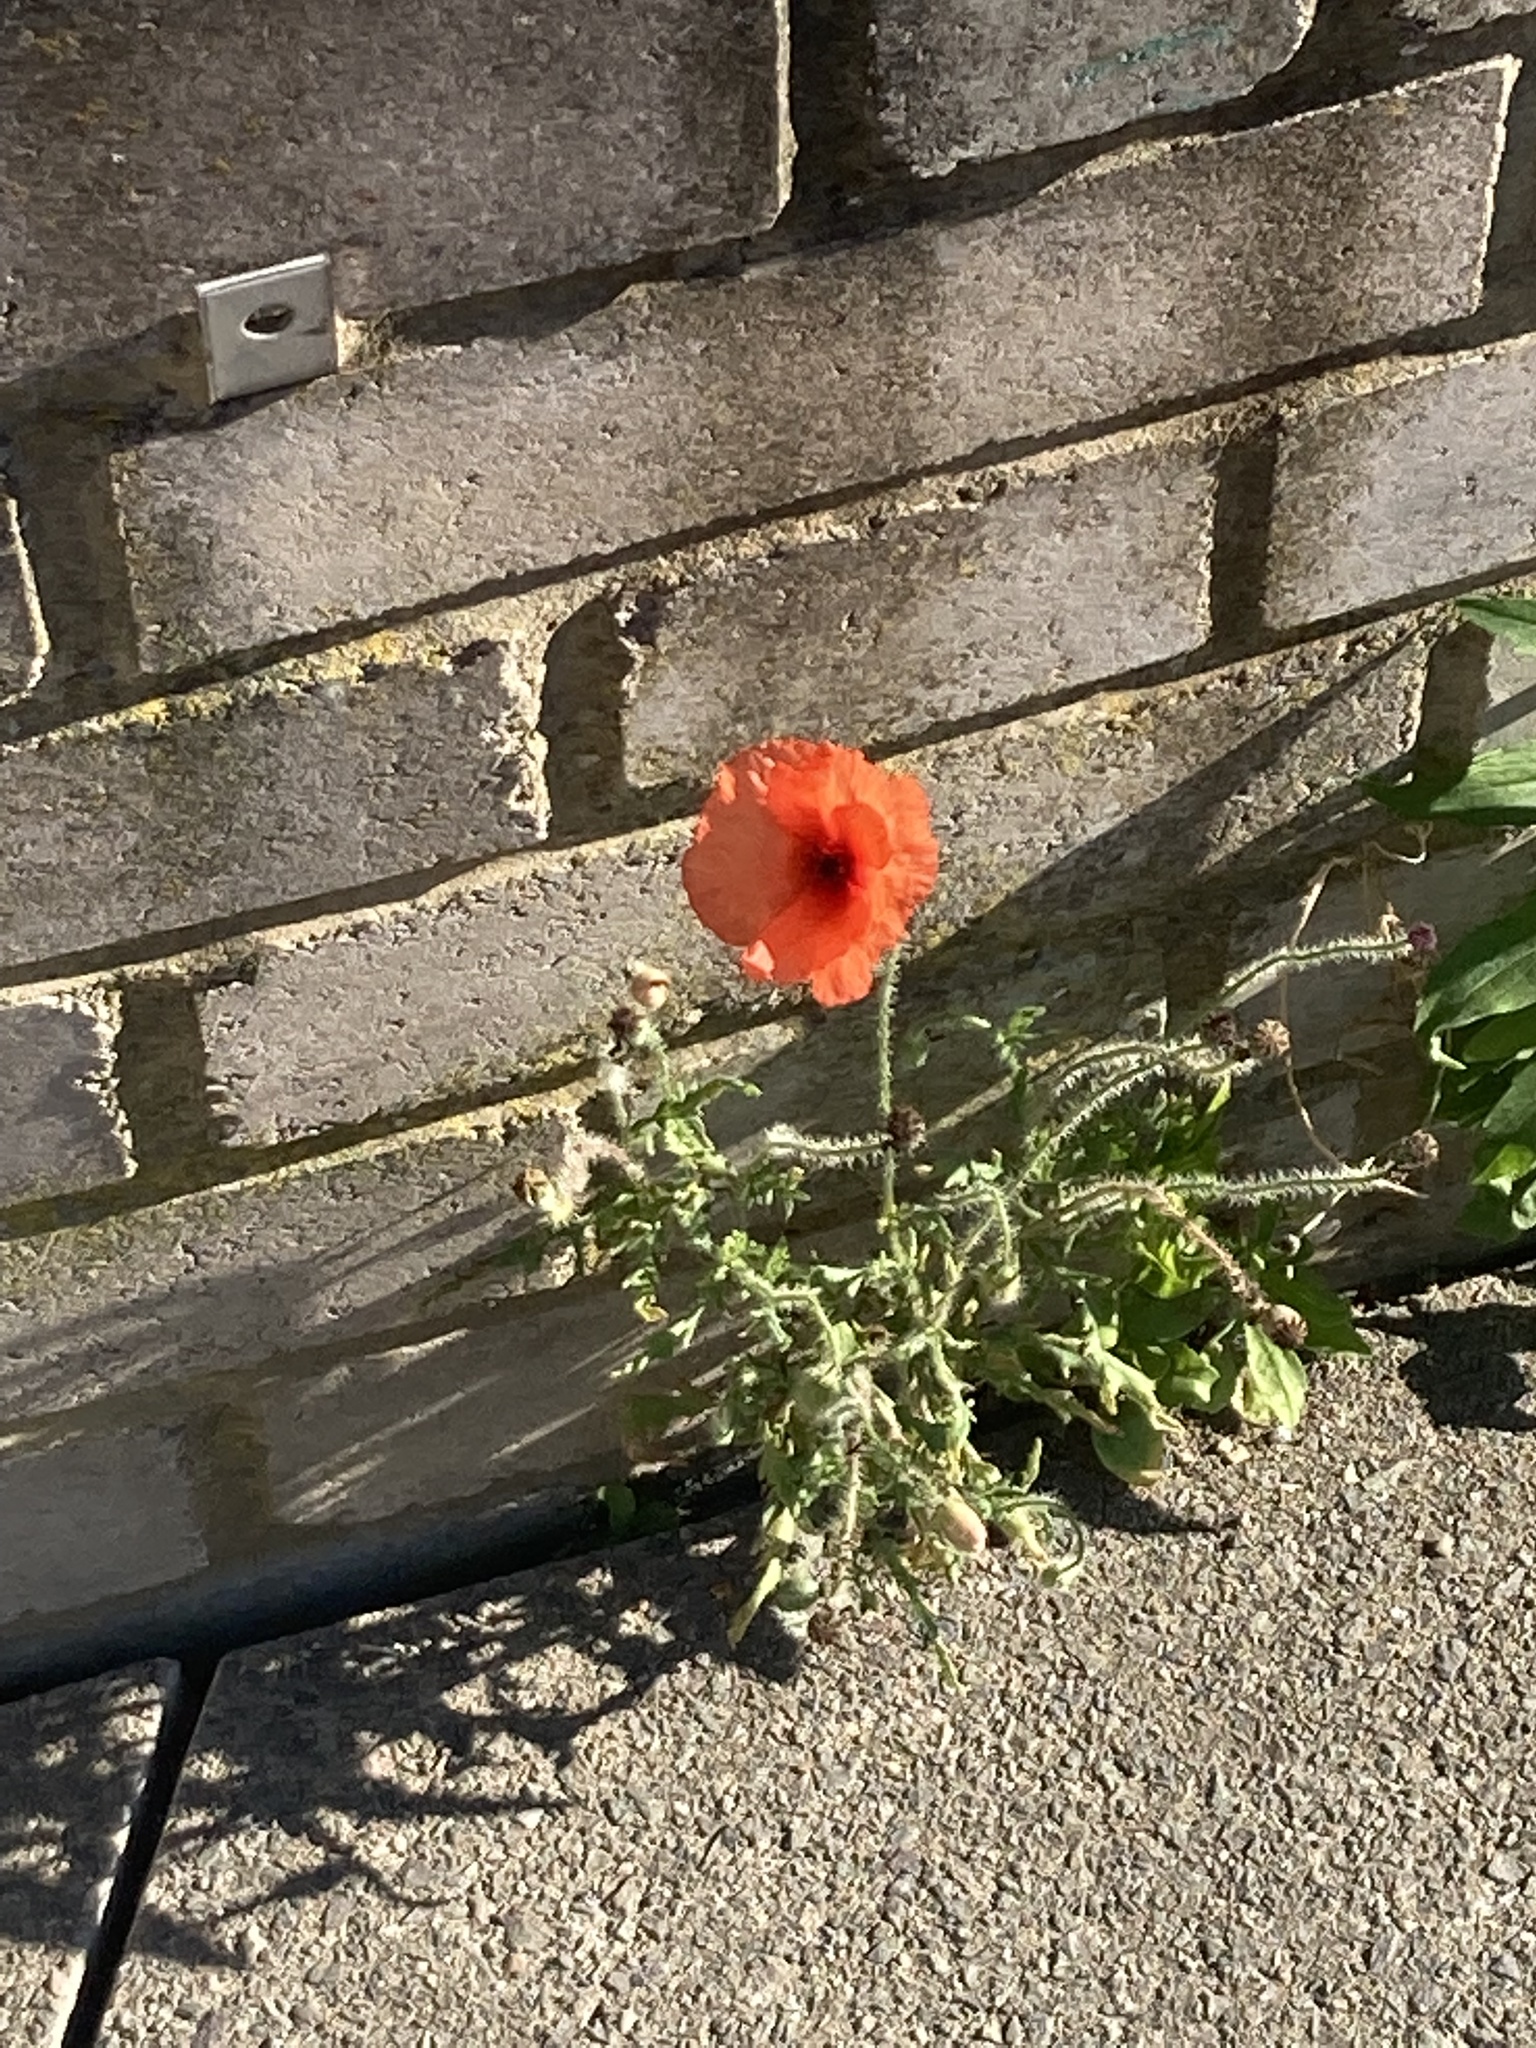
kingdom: Plantae
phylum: Tracheophyta
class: Magnoliopsida
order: Ranunculales
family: Papaveraceae
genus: Papaver
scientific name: Papaver rhoeas
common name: Corn poppy
